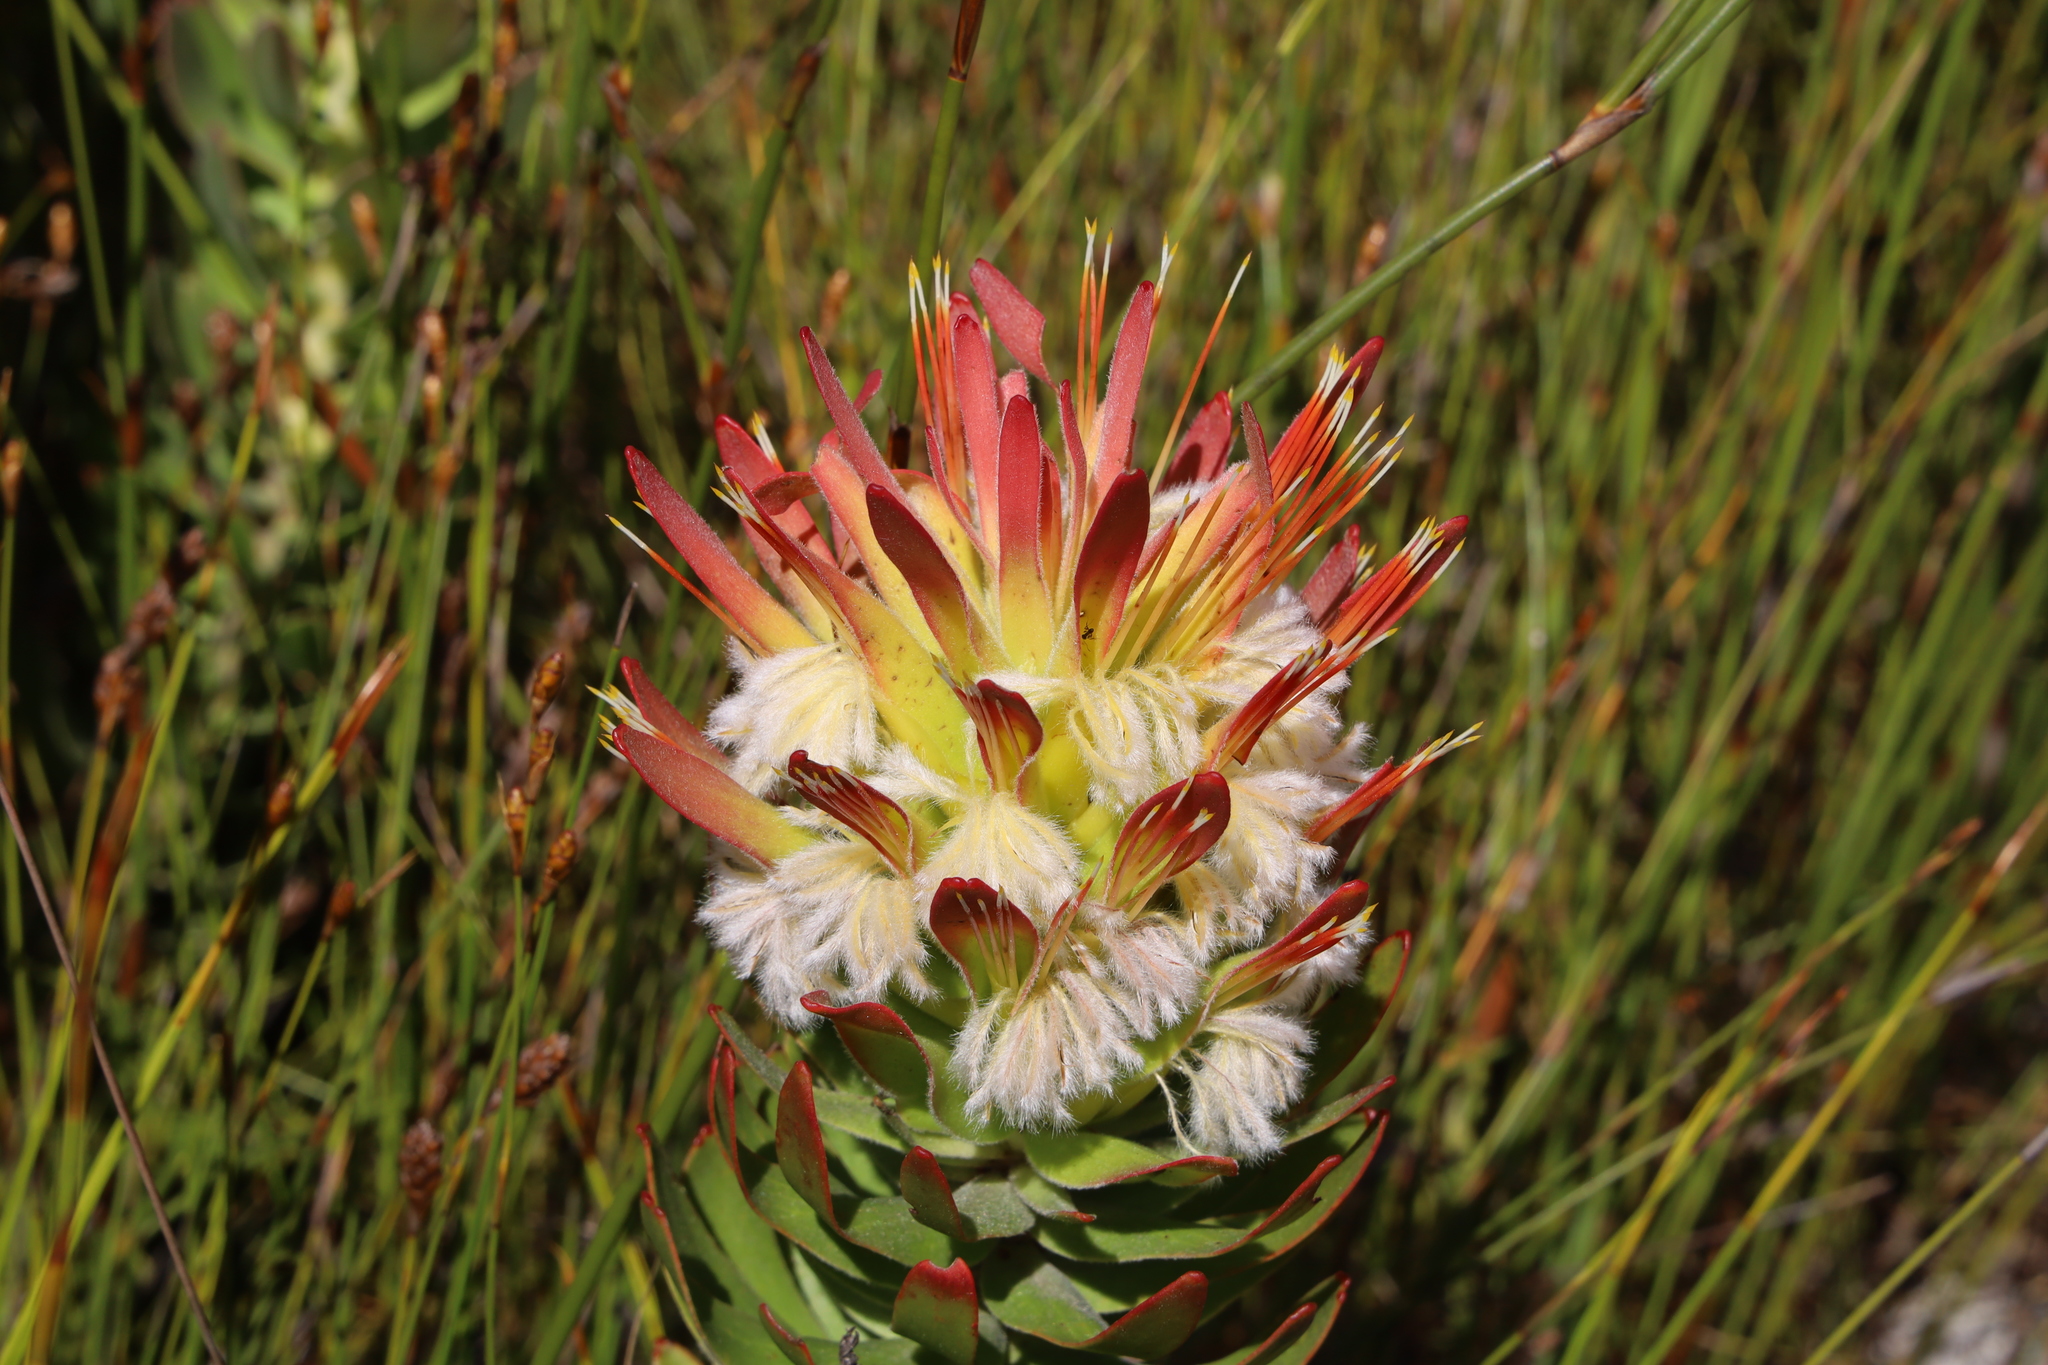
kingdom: Plantae
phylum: Tracheophyta
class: Magnoliopsida
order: Proteales
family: Proteaceae
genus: Mimetes
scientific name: Mimetes cucullatus
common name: Common pagoda
